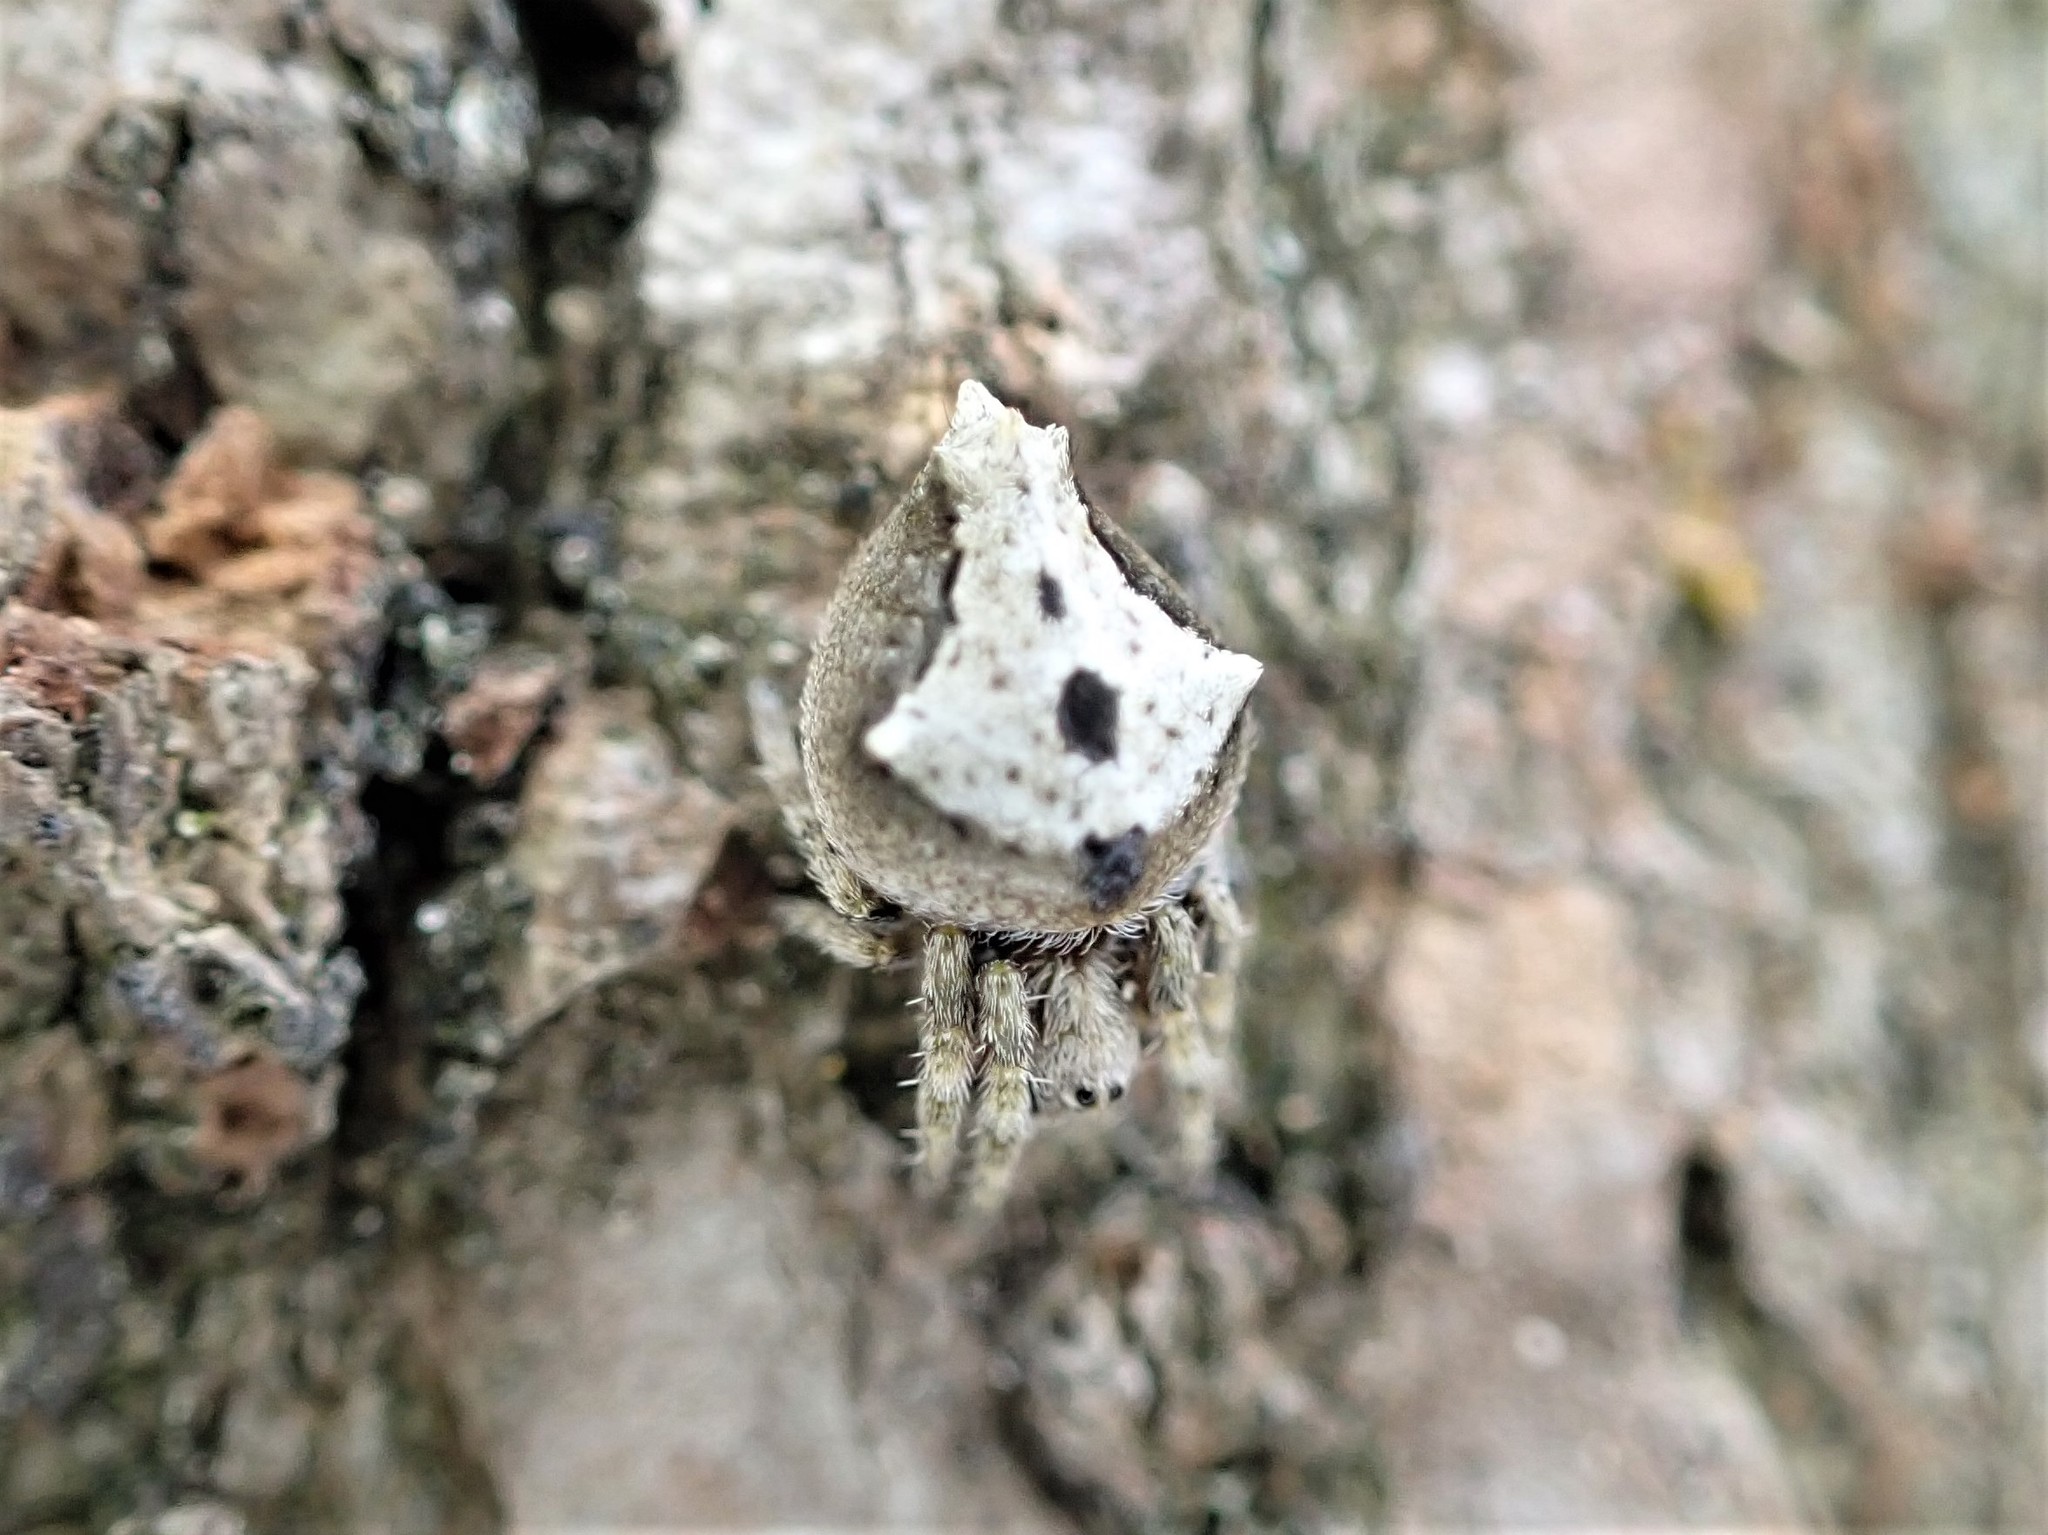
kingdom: Animalia
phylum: Arthropoda
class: Arachnida
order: Araneae
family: Araneidae
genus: Eriophora
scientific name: Eriophora pustulosa
